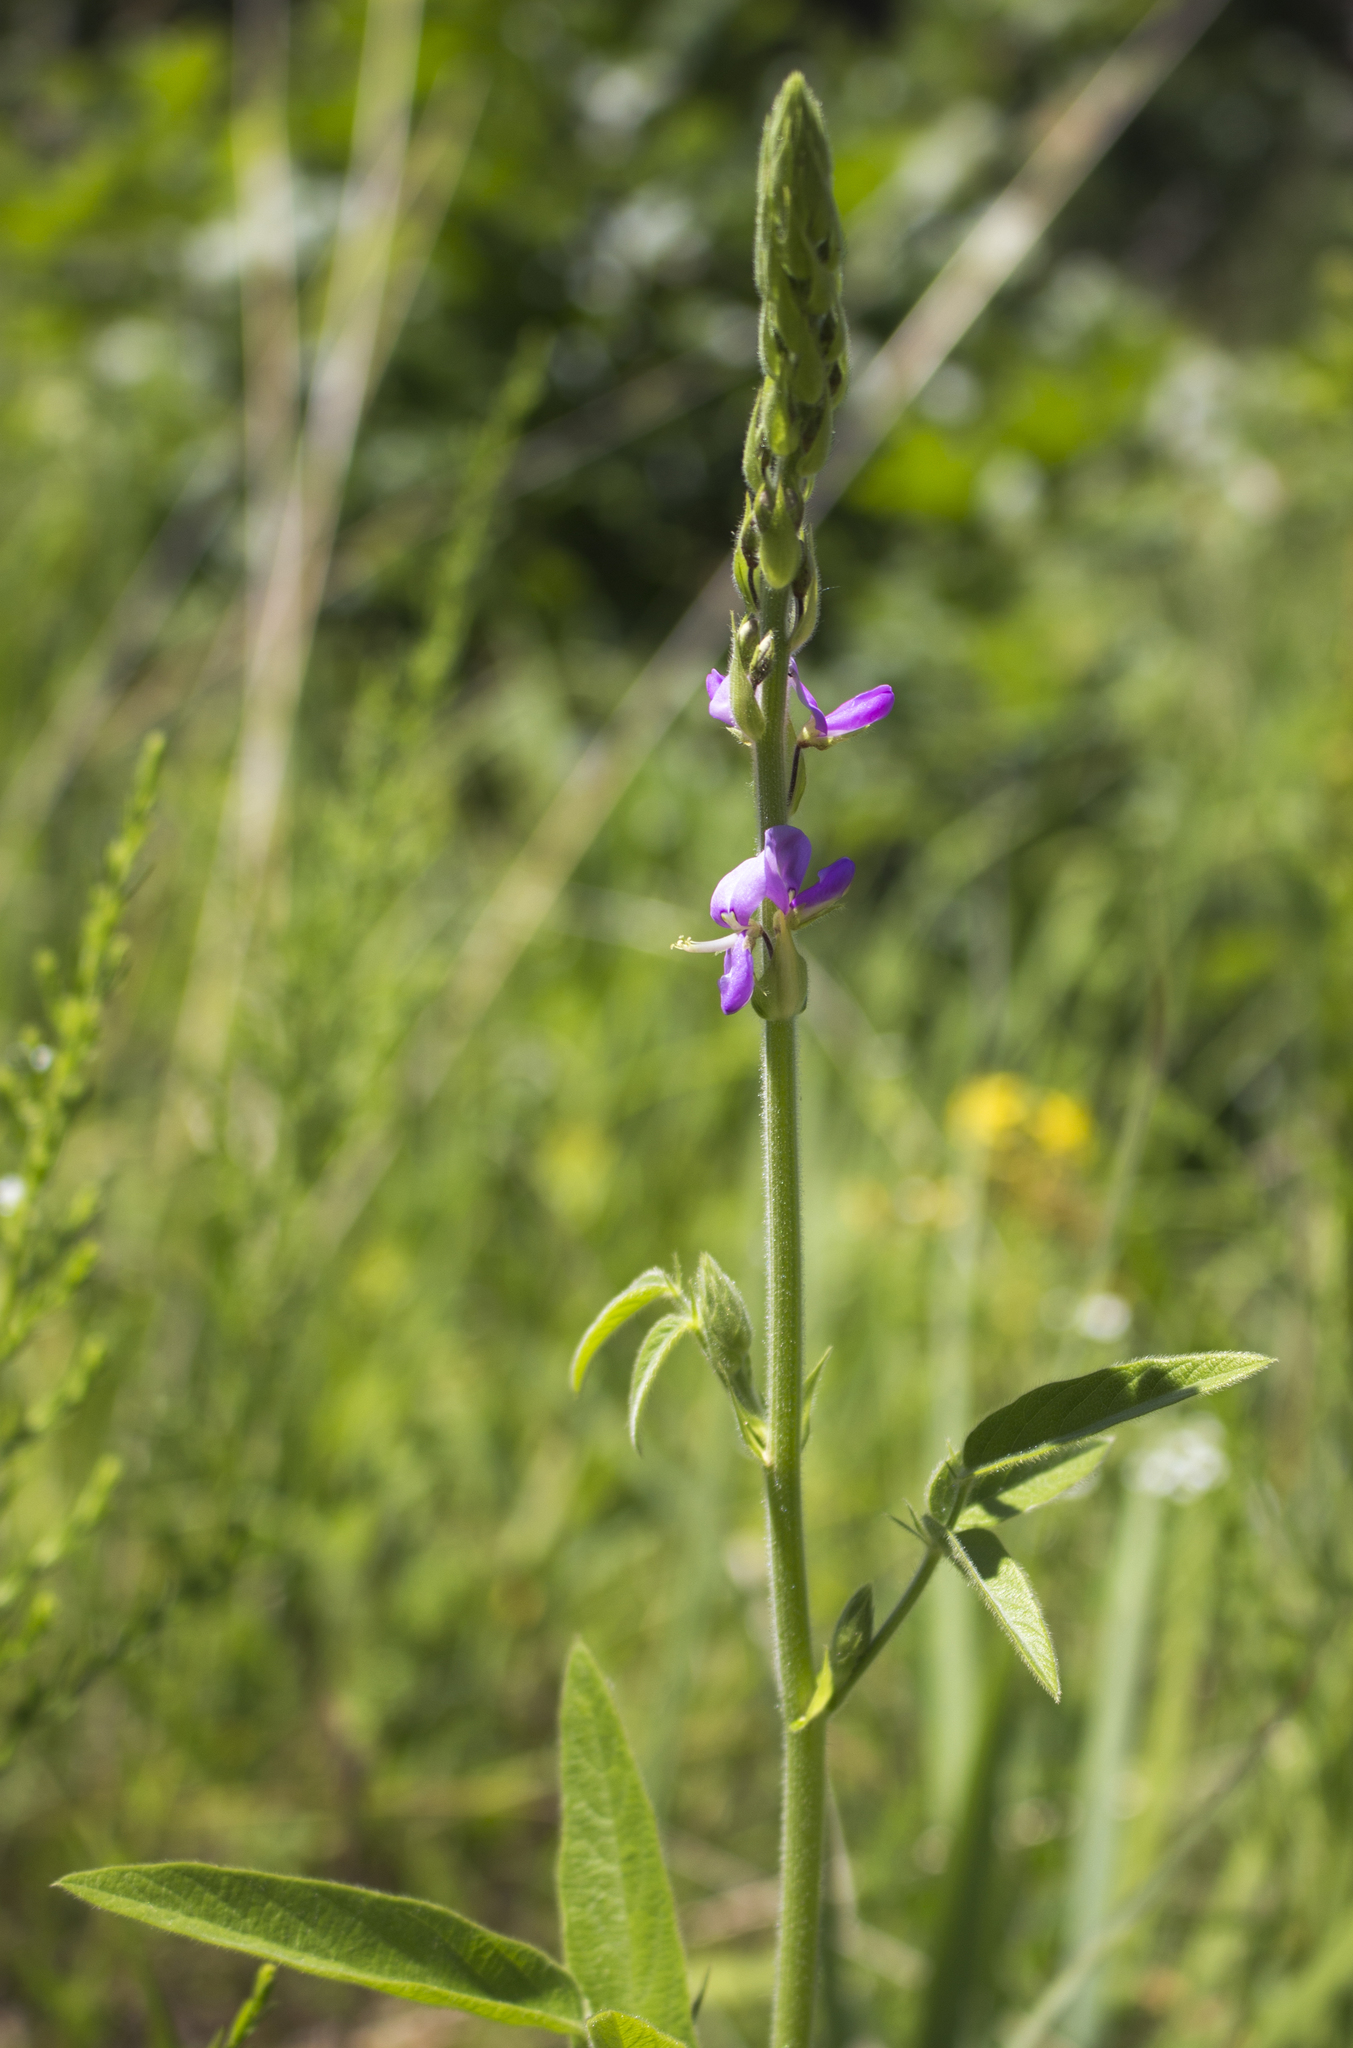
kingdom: Plantae
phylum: Tracheophyta
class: Magnoliopsida
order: Fabales
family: Fabaceae
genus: Desmodium
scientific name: Desmodium canadense
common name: Canada tick-trefoil
